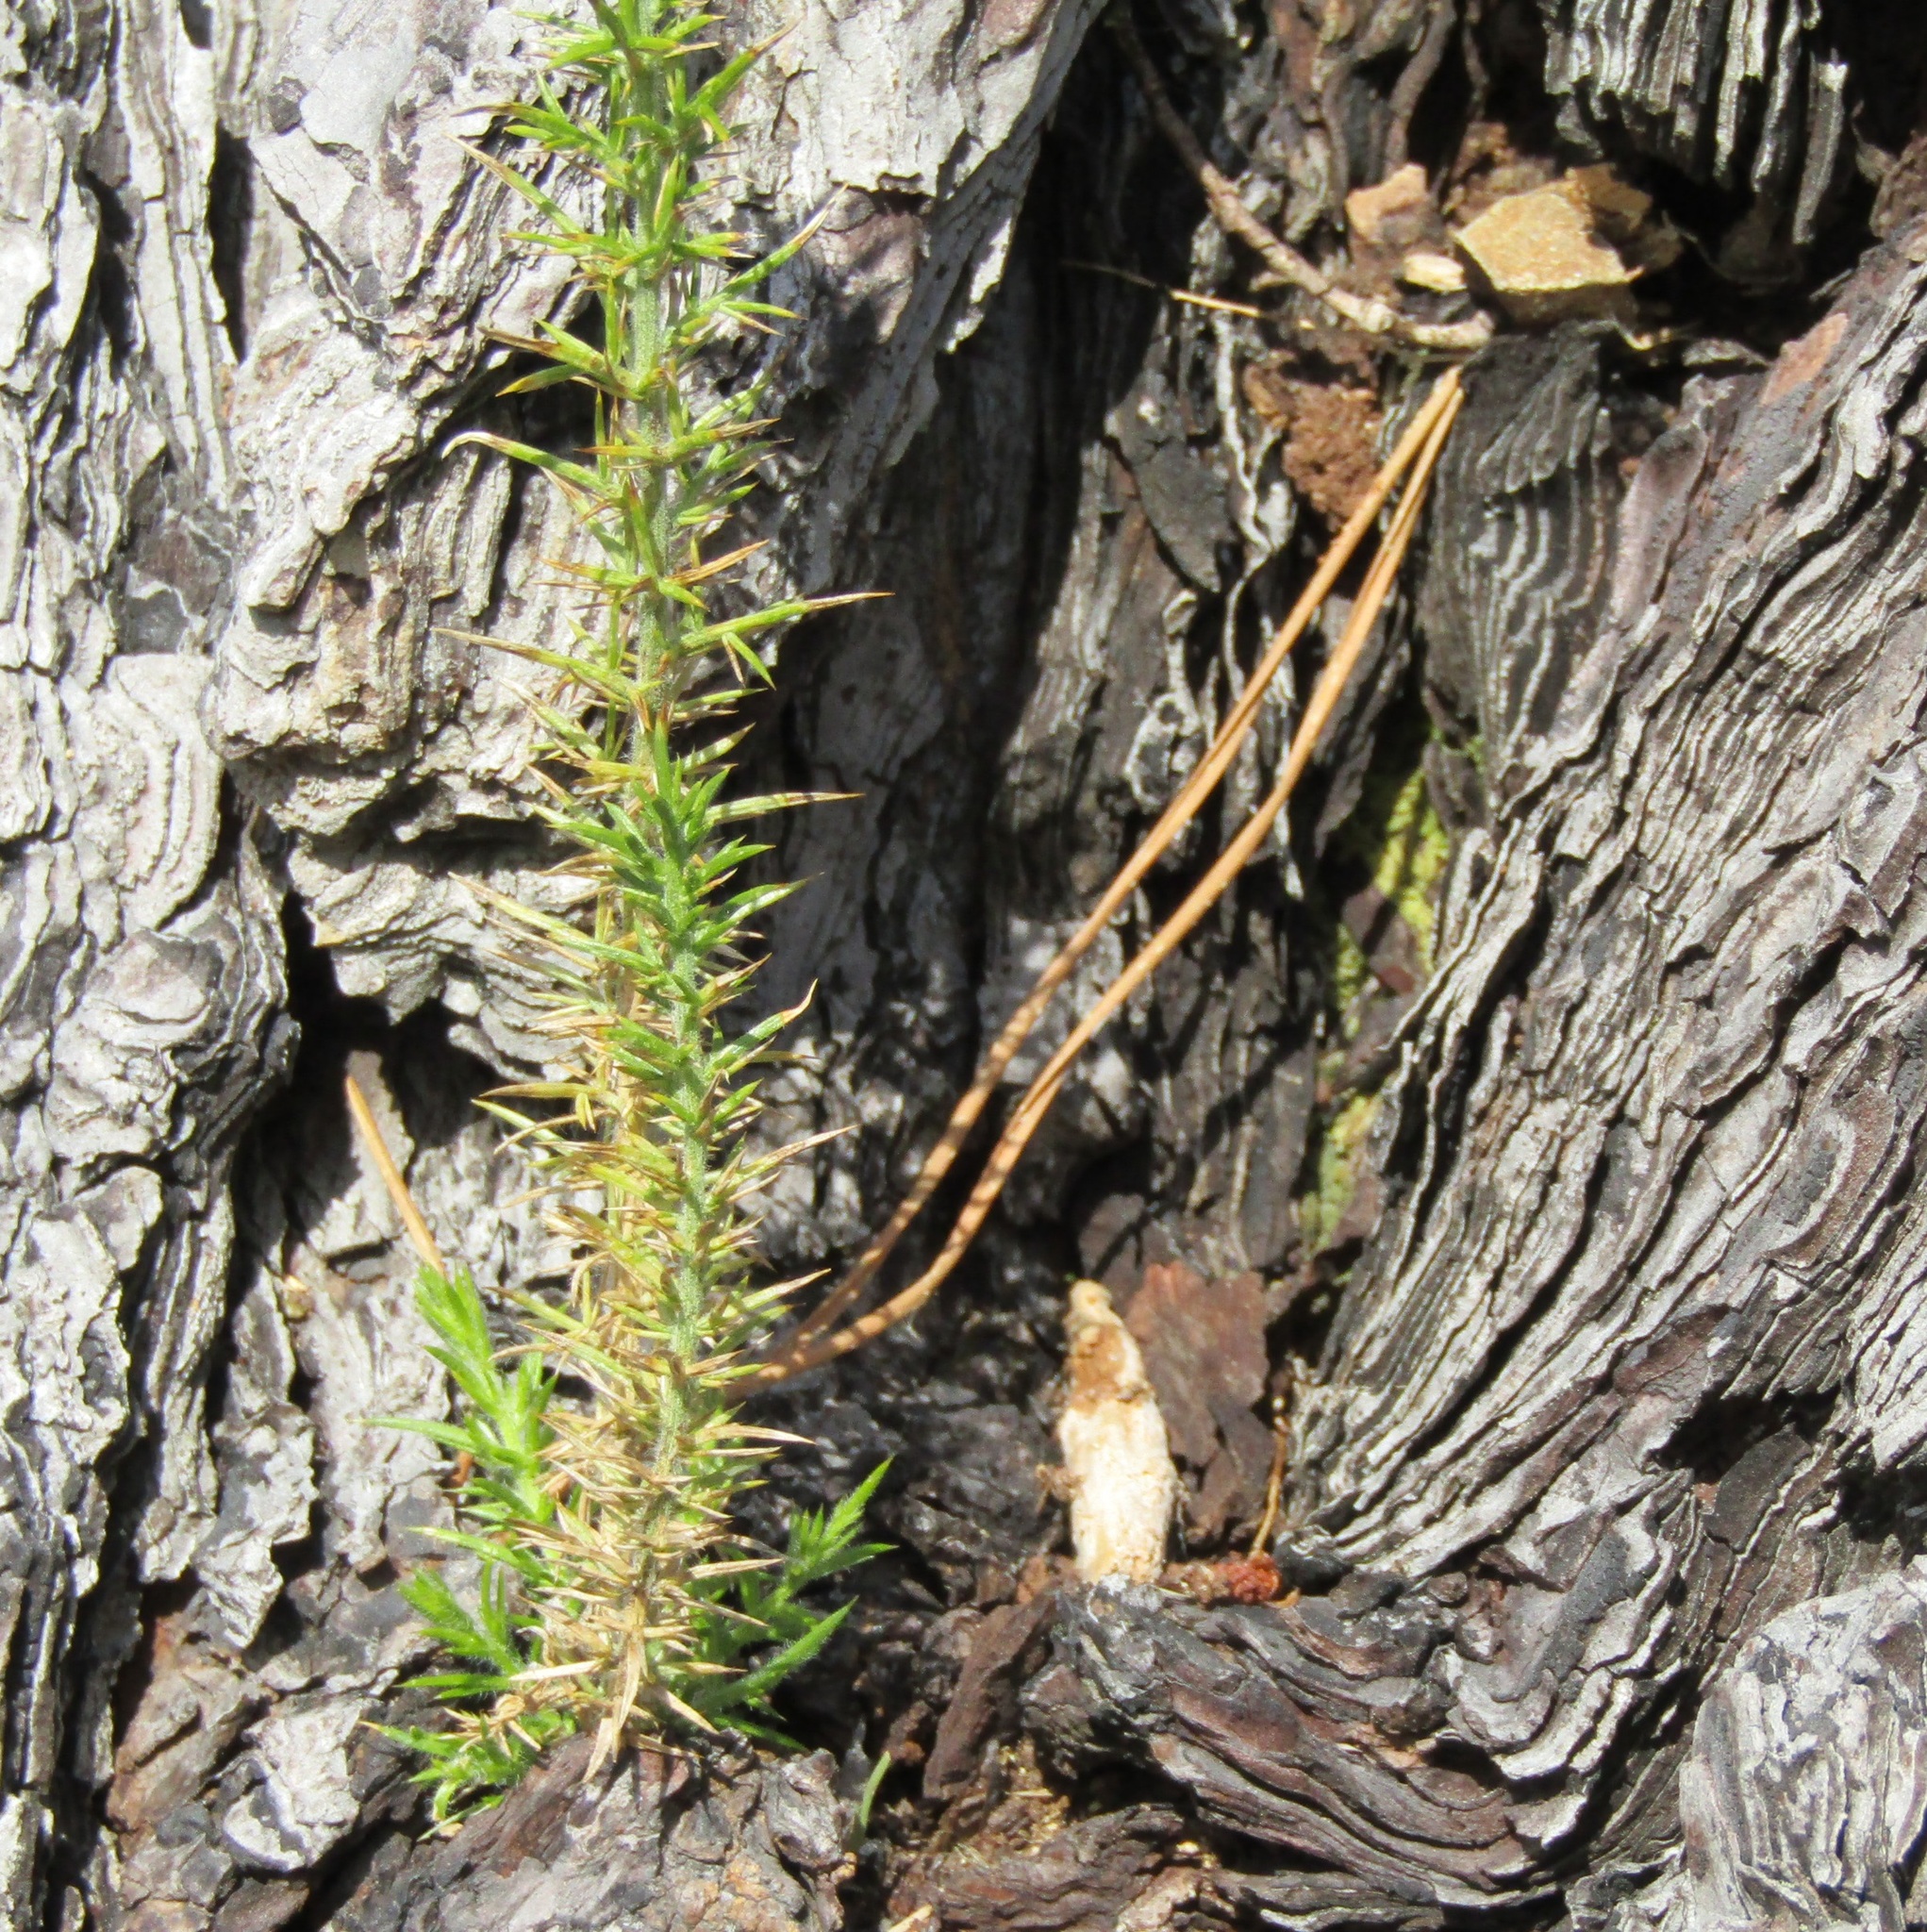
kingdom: Plantae
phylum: Tracheophyta
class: Magnoliopsida
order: Fabales
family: Fabaceae
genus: Ulex
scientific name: Ulex europaeus
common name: Common gorse
